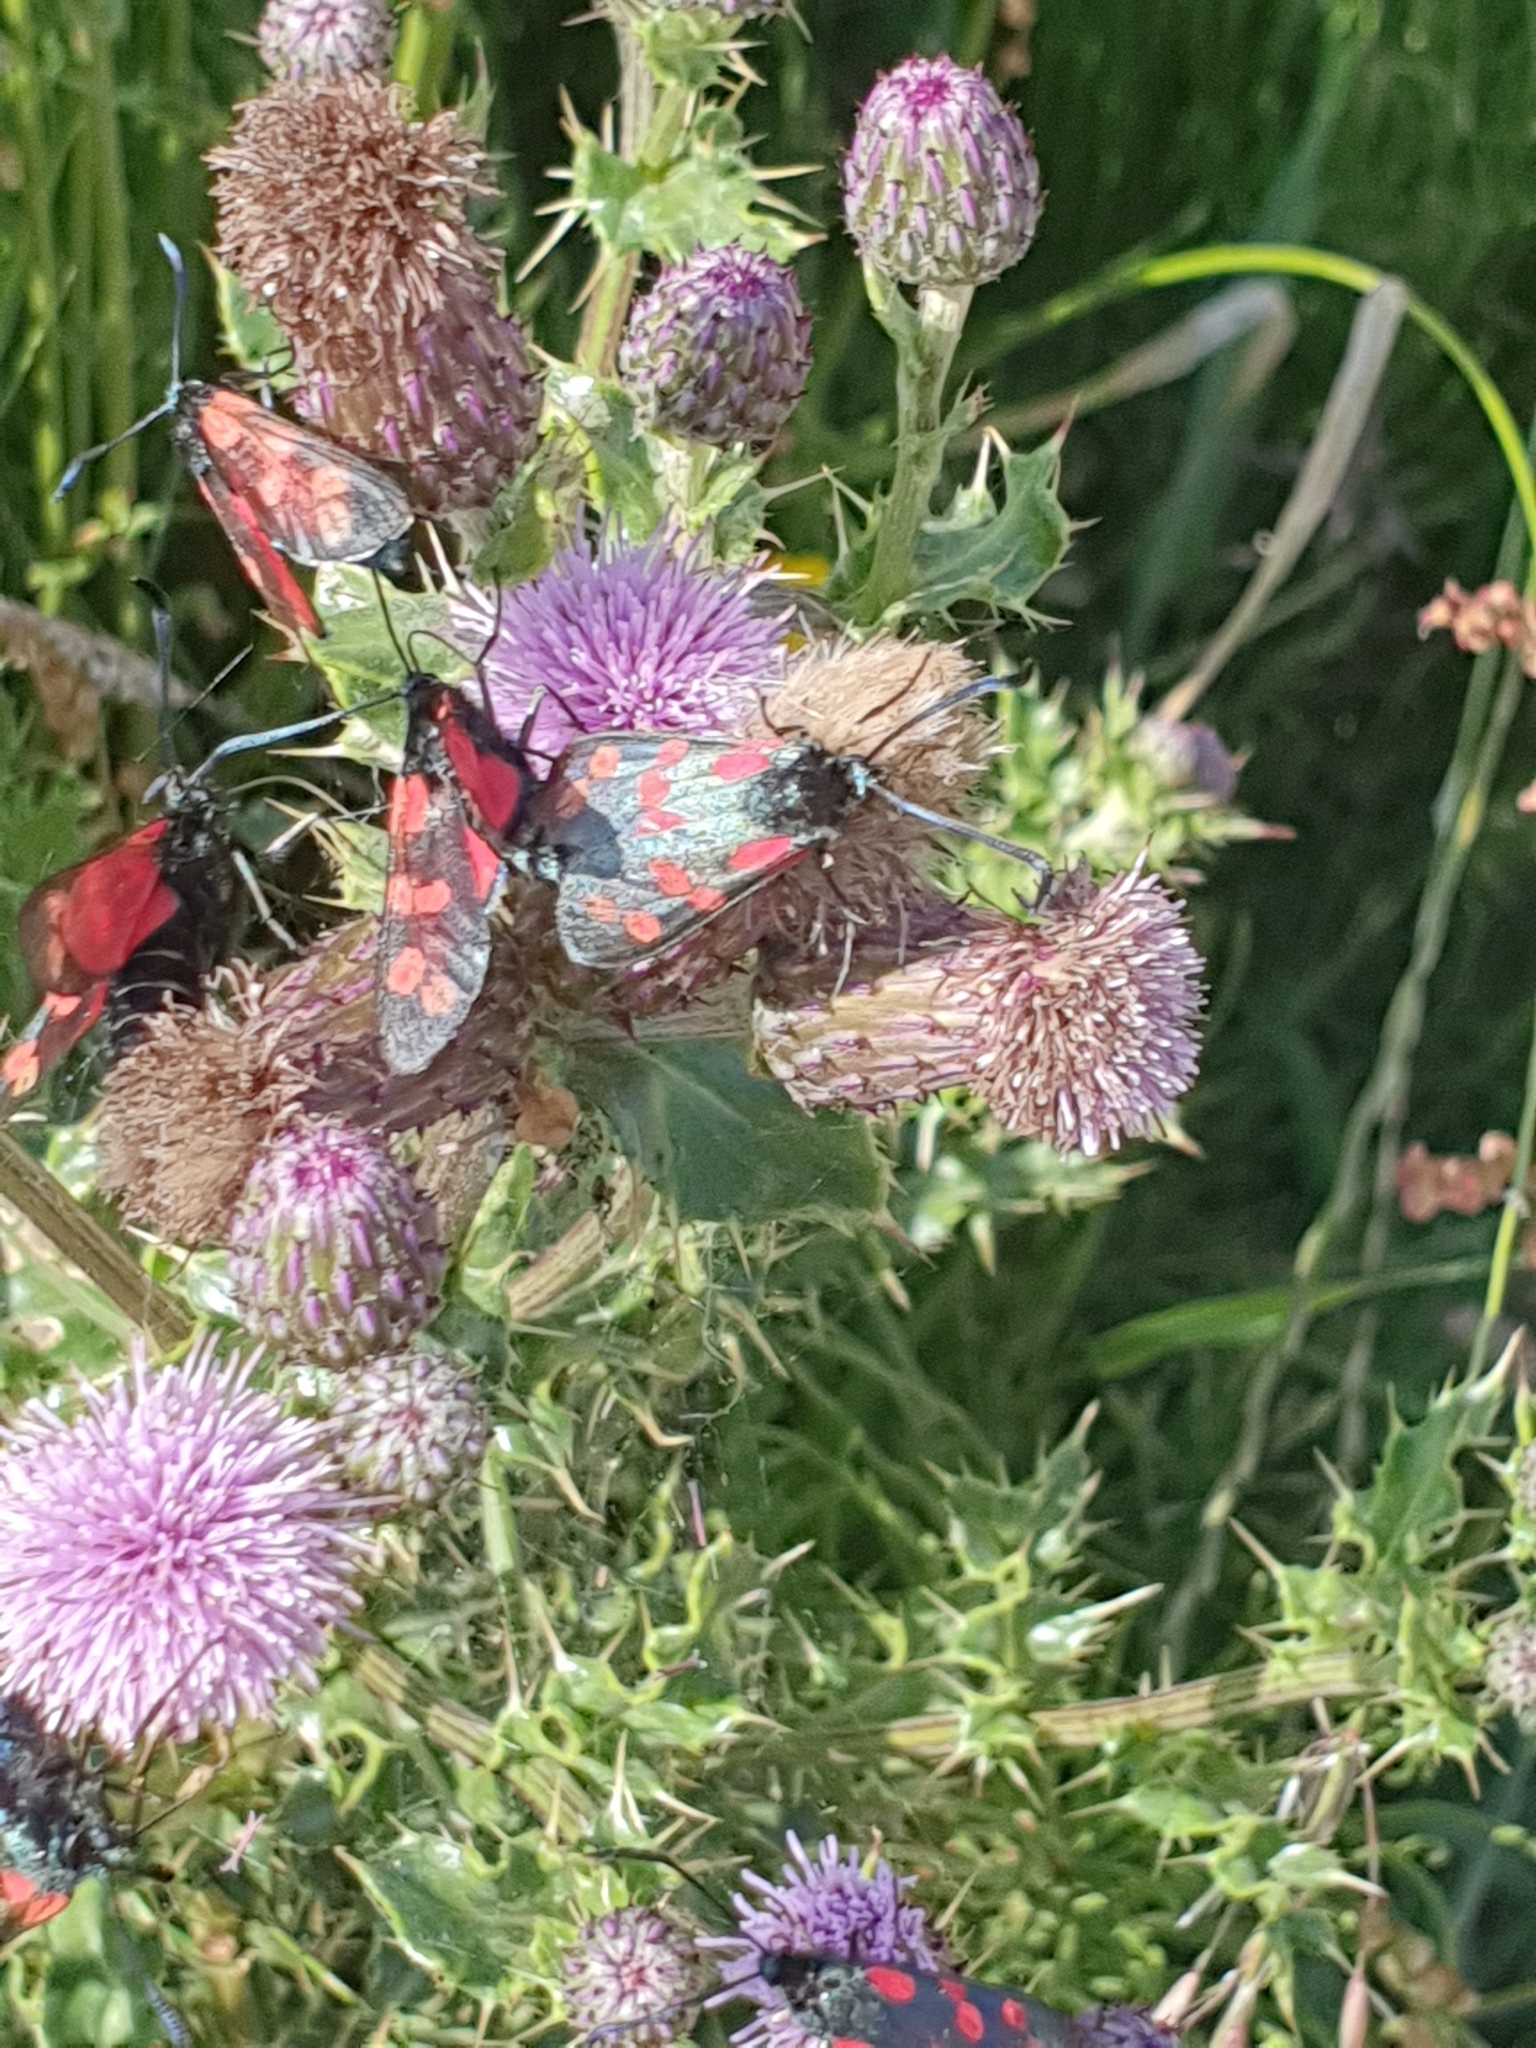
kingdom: Animalia
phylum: Arthropoda
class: Insecta
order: Lepidoptera
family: Zygaenidae
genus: Zygaena
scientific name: Zygaena filipendulae
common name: Six-spot burnet
